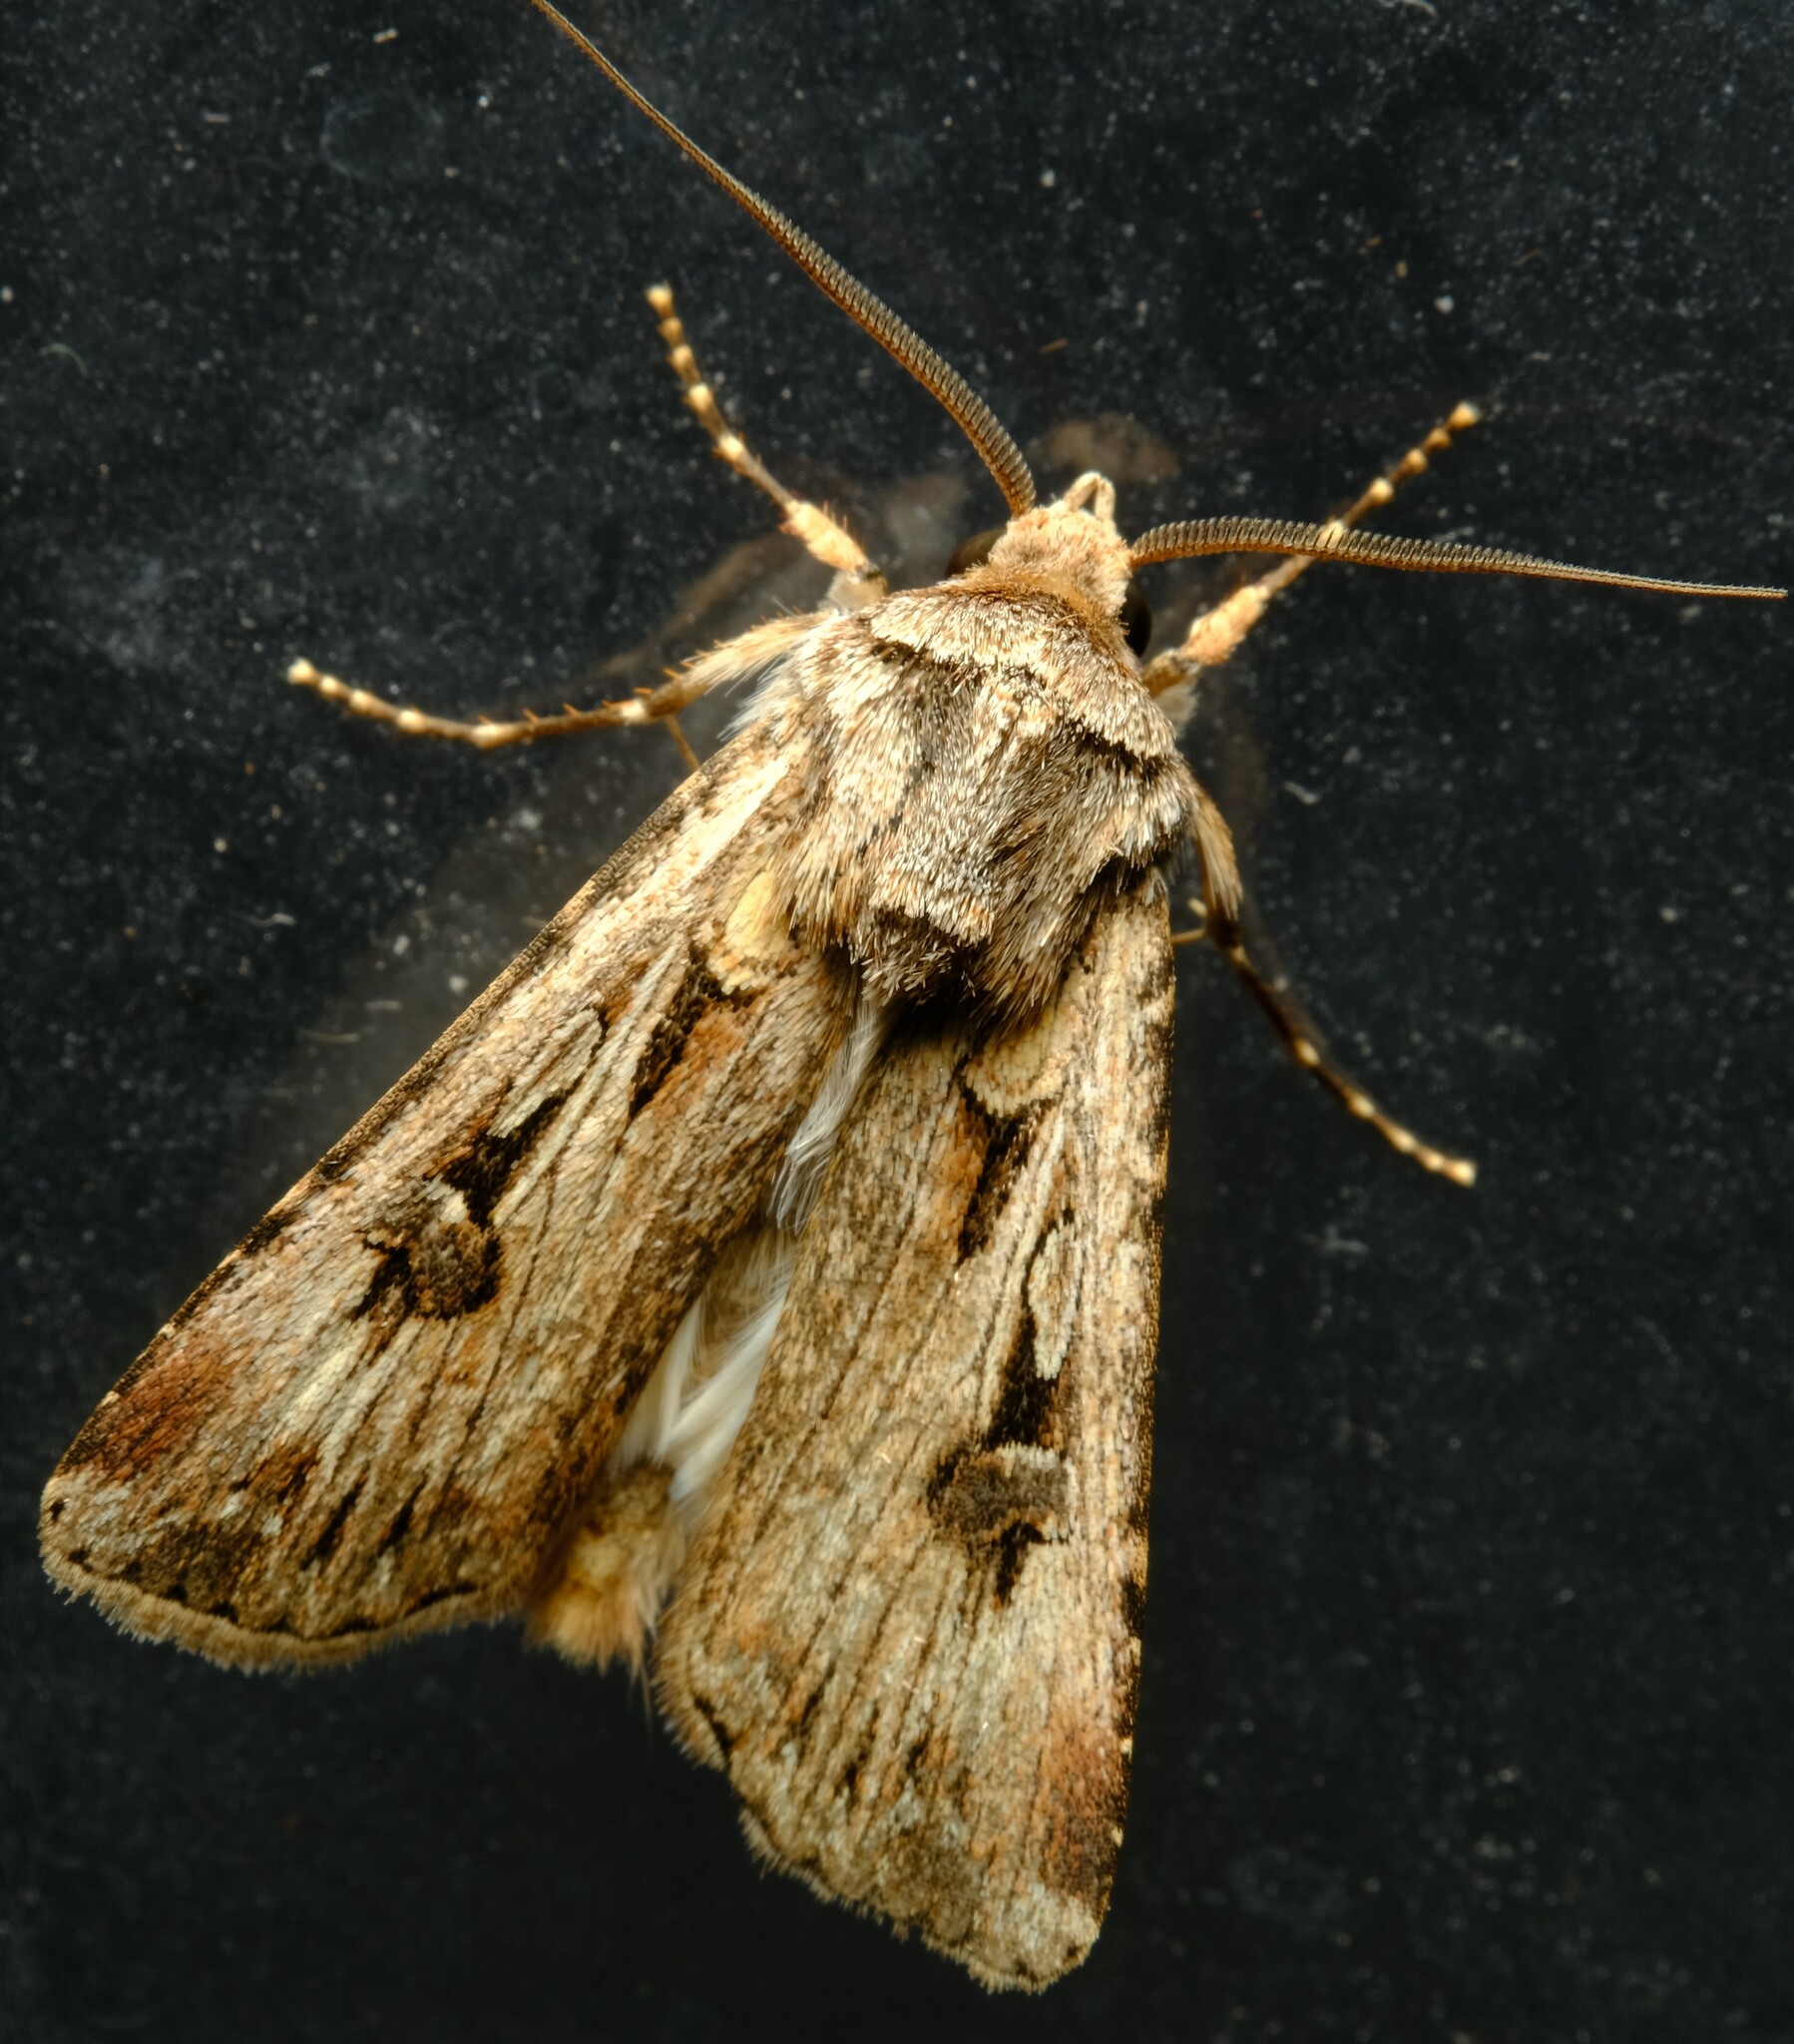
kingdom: Animalia
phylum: Arthropoda
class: Insecta
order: Lepidoptera
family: Noctuidae
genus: Agrotis
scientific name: Agrotis munda
